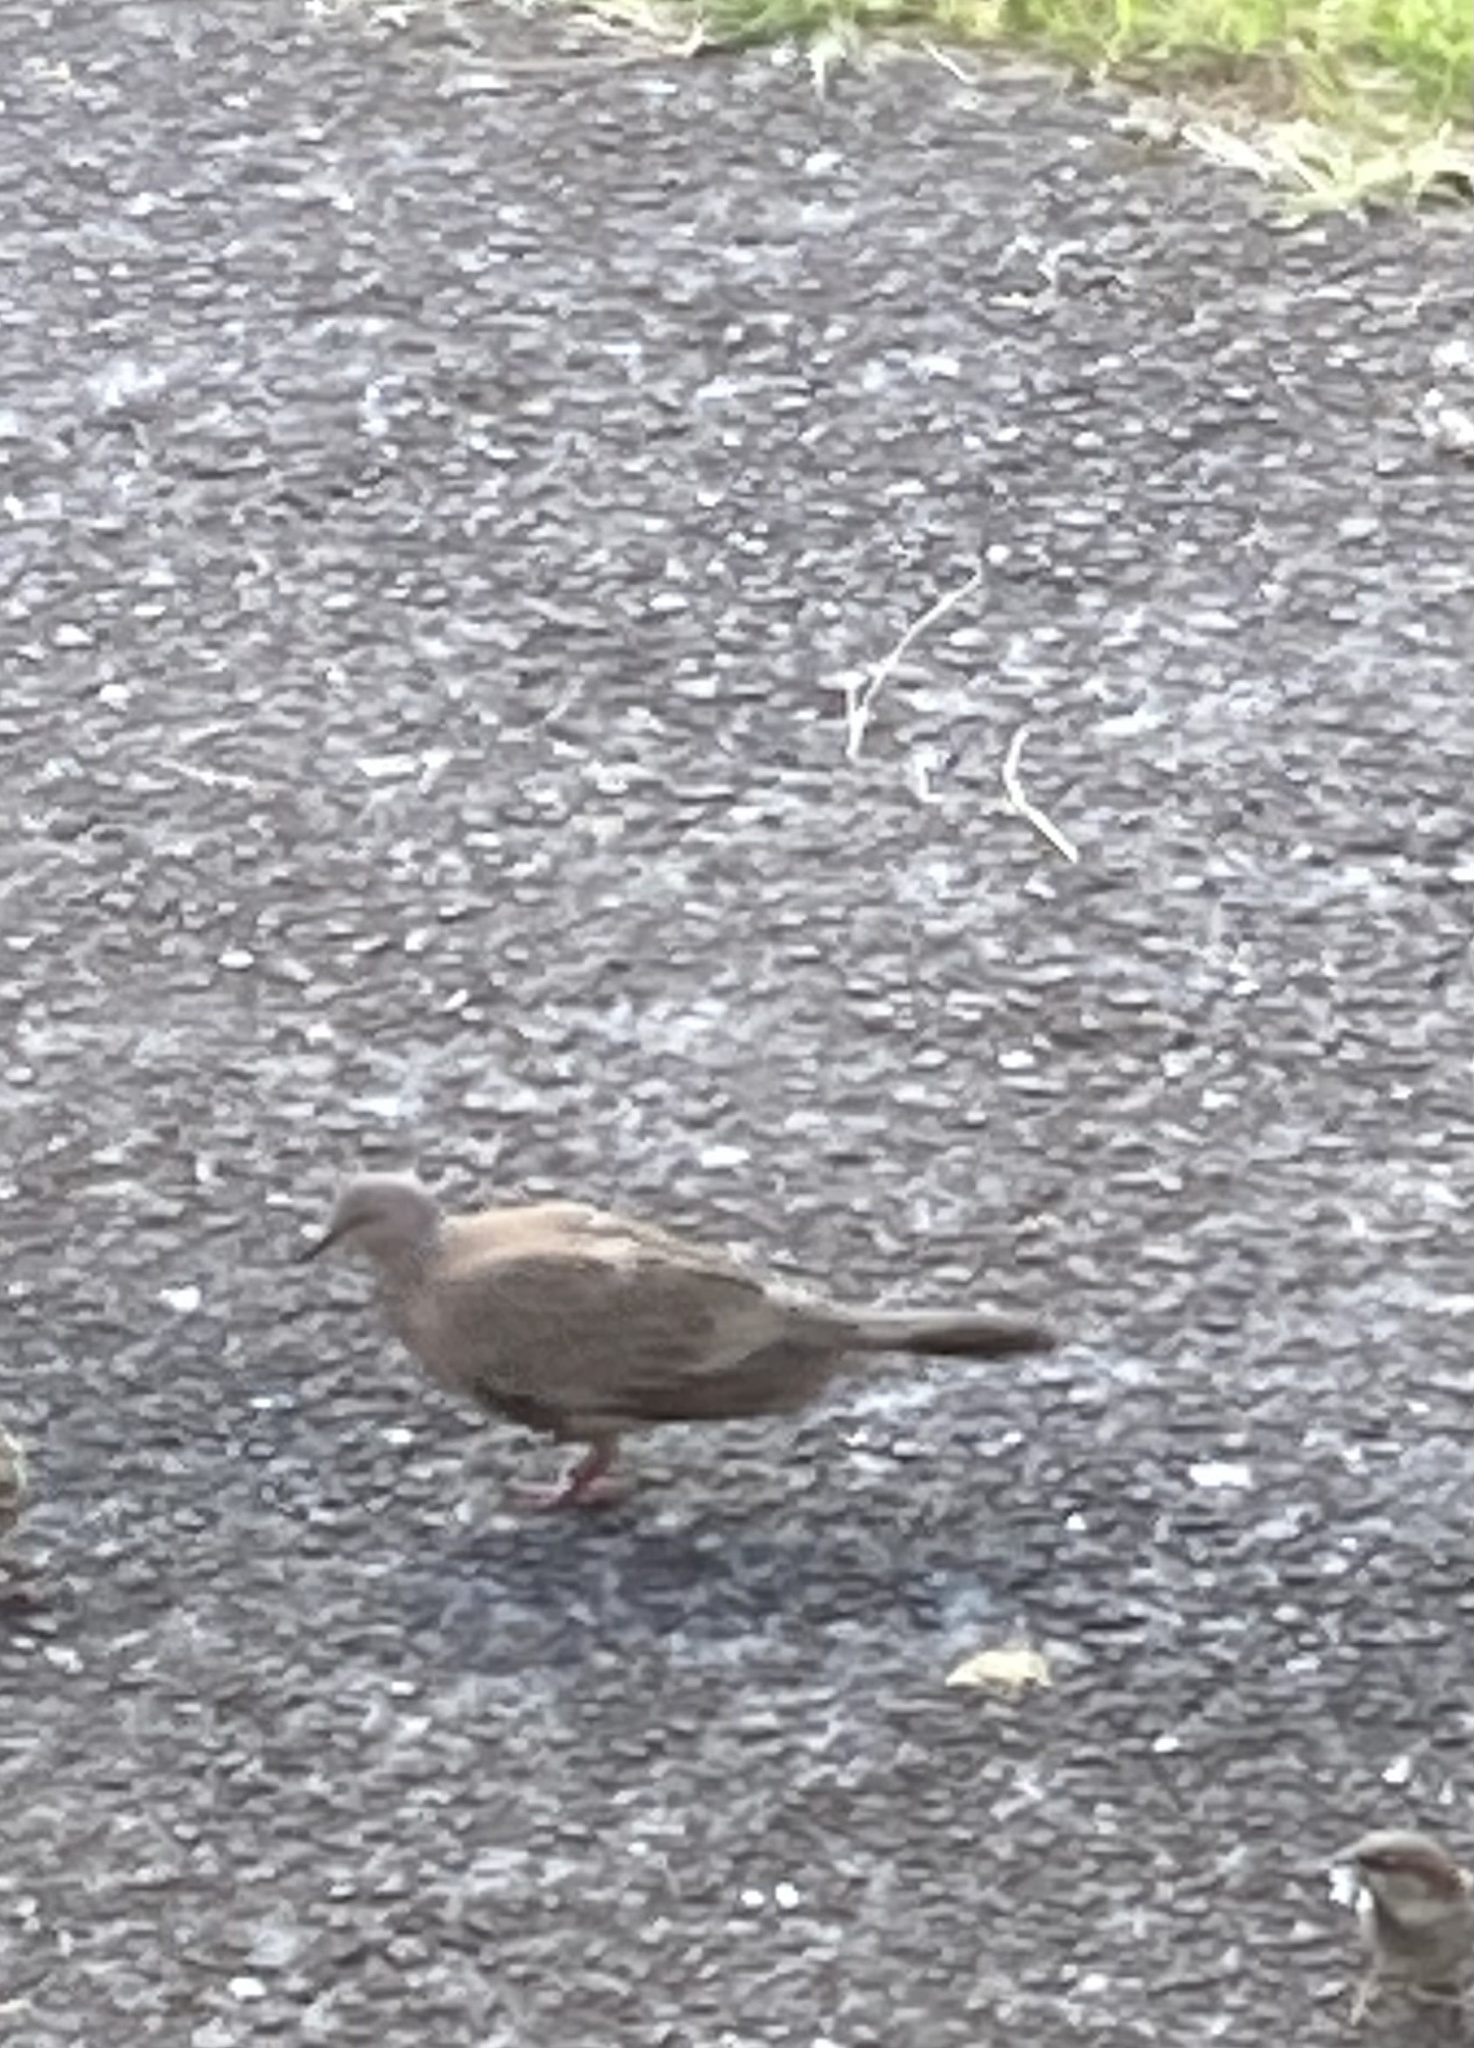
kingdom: Animalia
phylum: Chordata
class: Aves
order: Columbiformes
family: Columbidae
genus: Spilopelia
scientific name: Spilopelia chinensis
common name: Spotted dove
